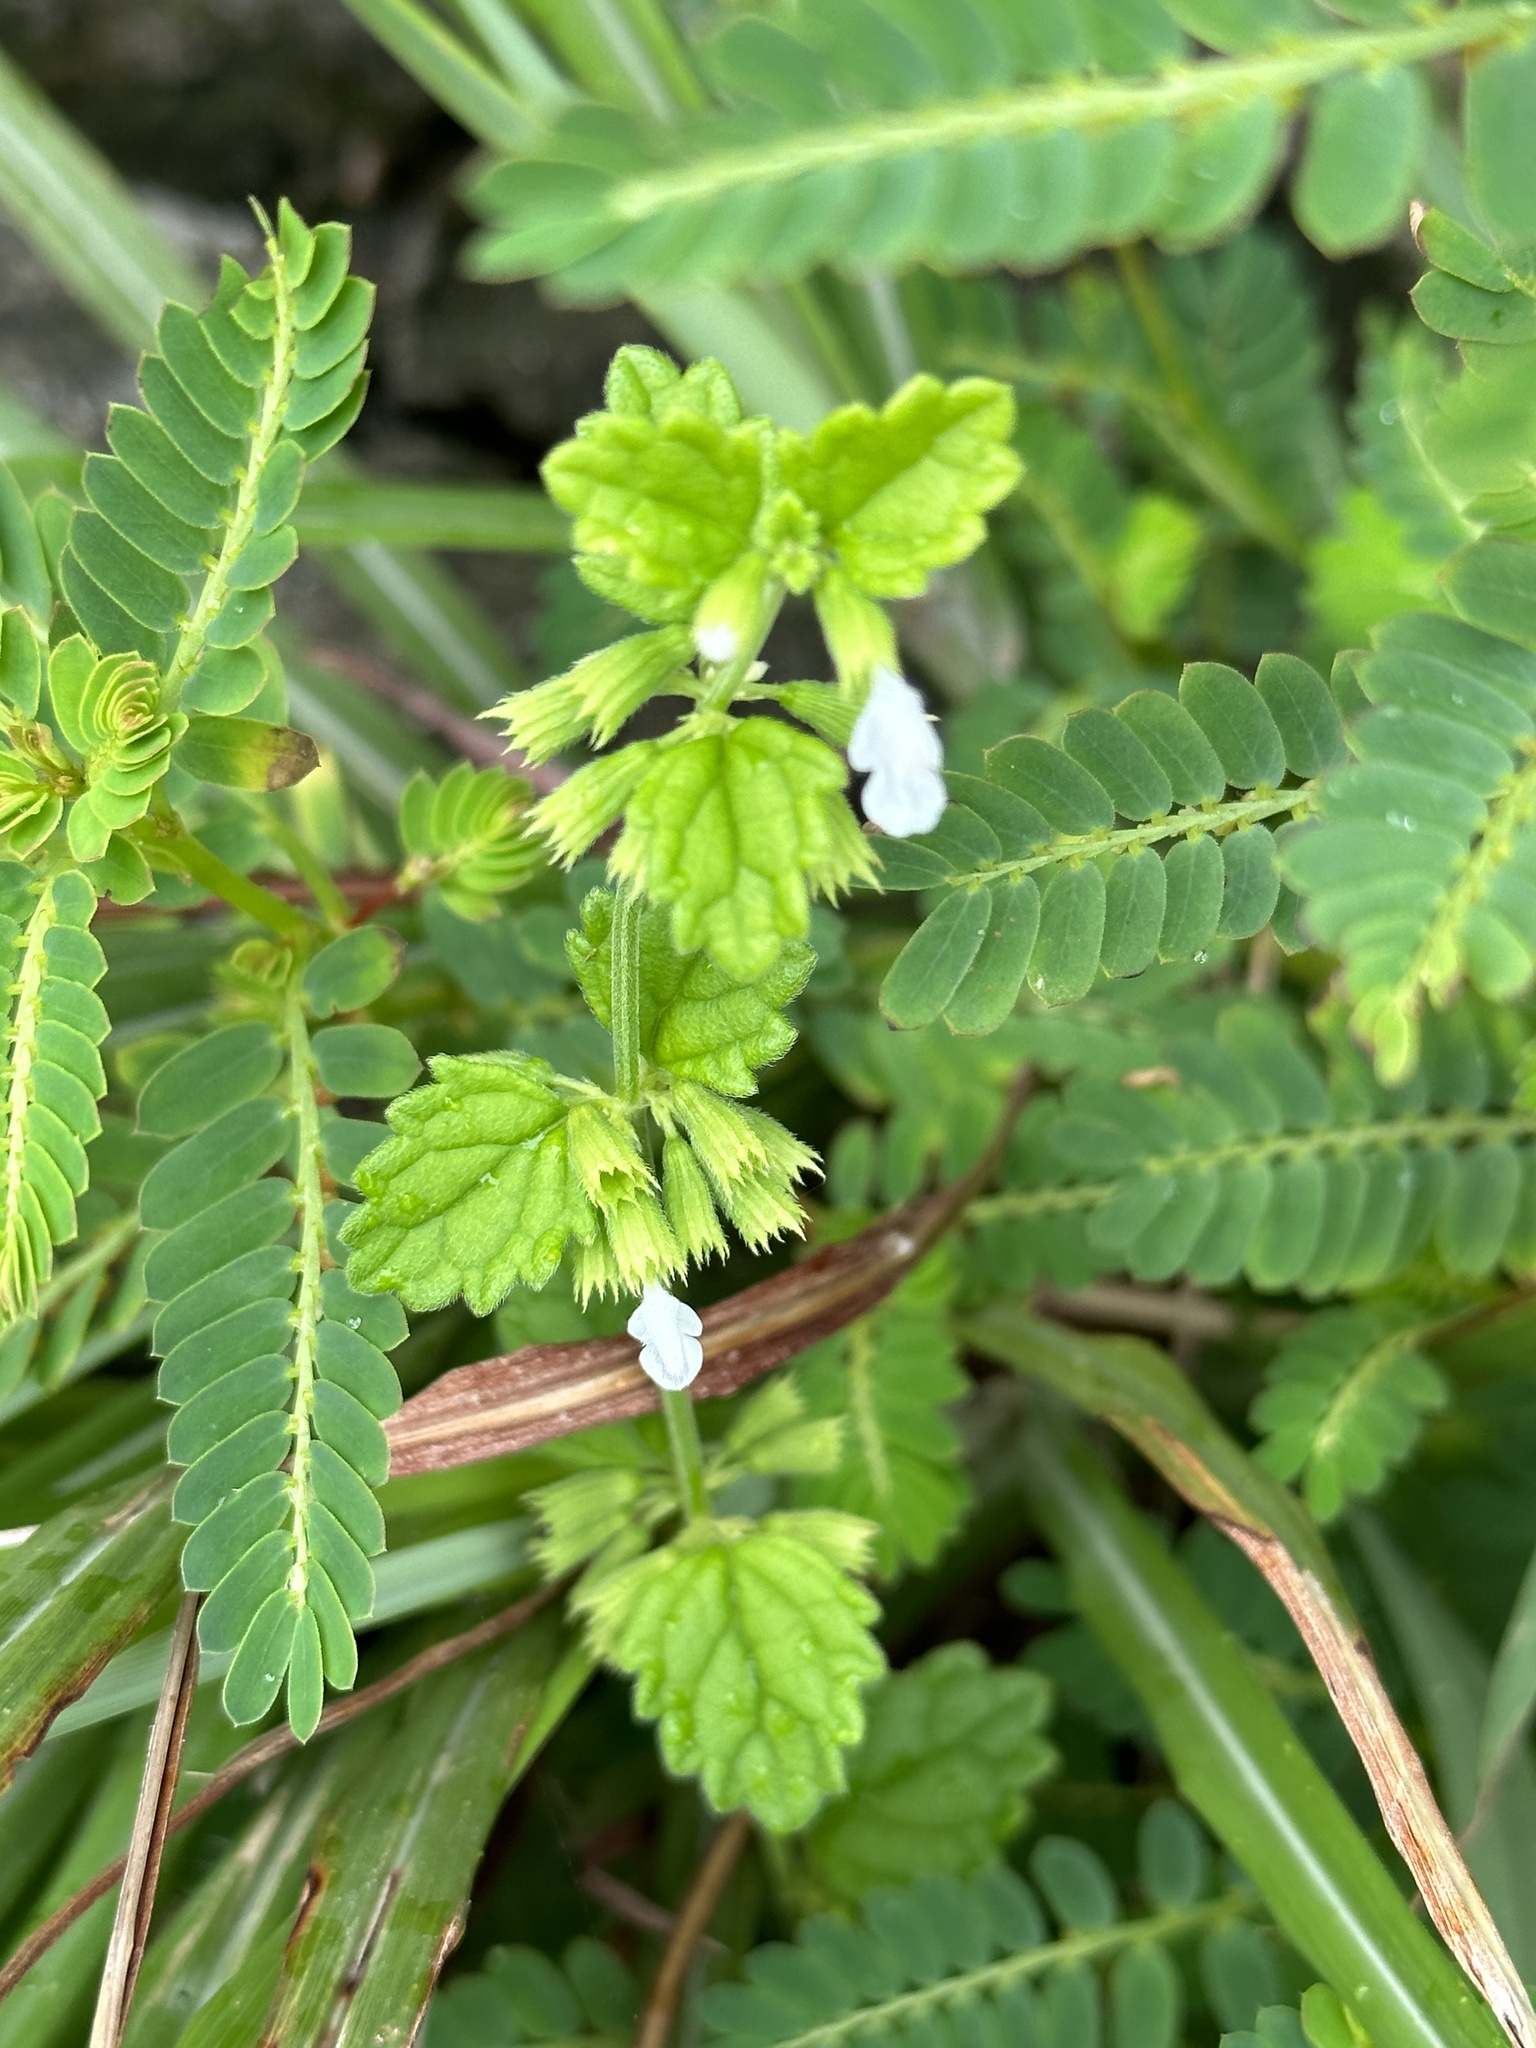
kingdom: Plantae
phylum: Tracheophyta
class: Magnoliopsida
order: Lamiales
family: Lamiaceae
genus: Leucas
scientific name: Leucas chinensis
